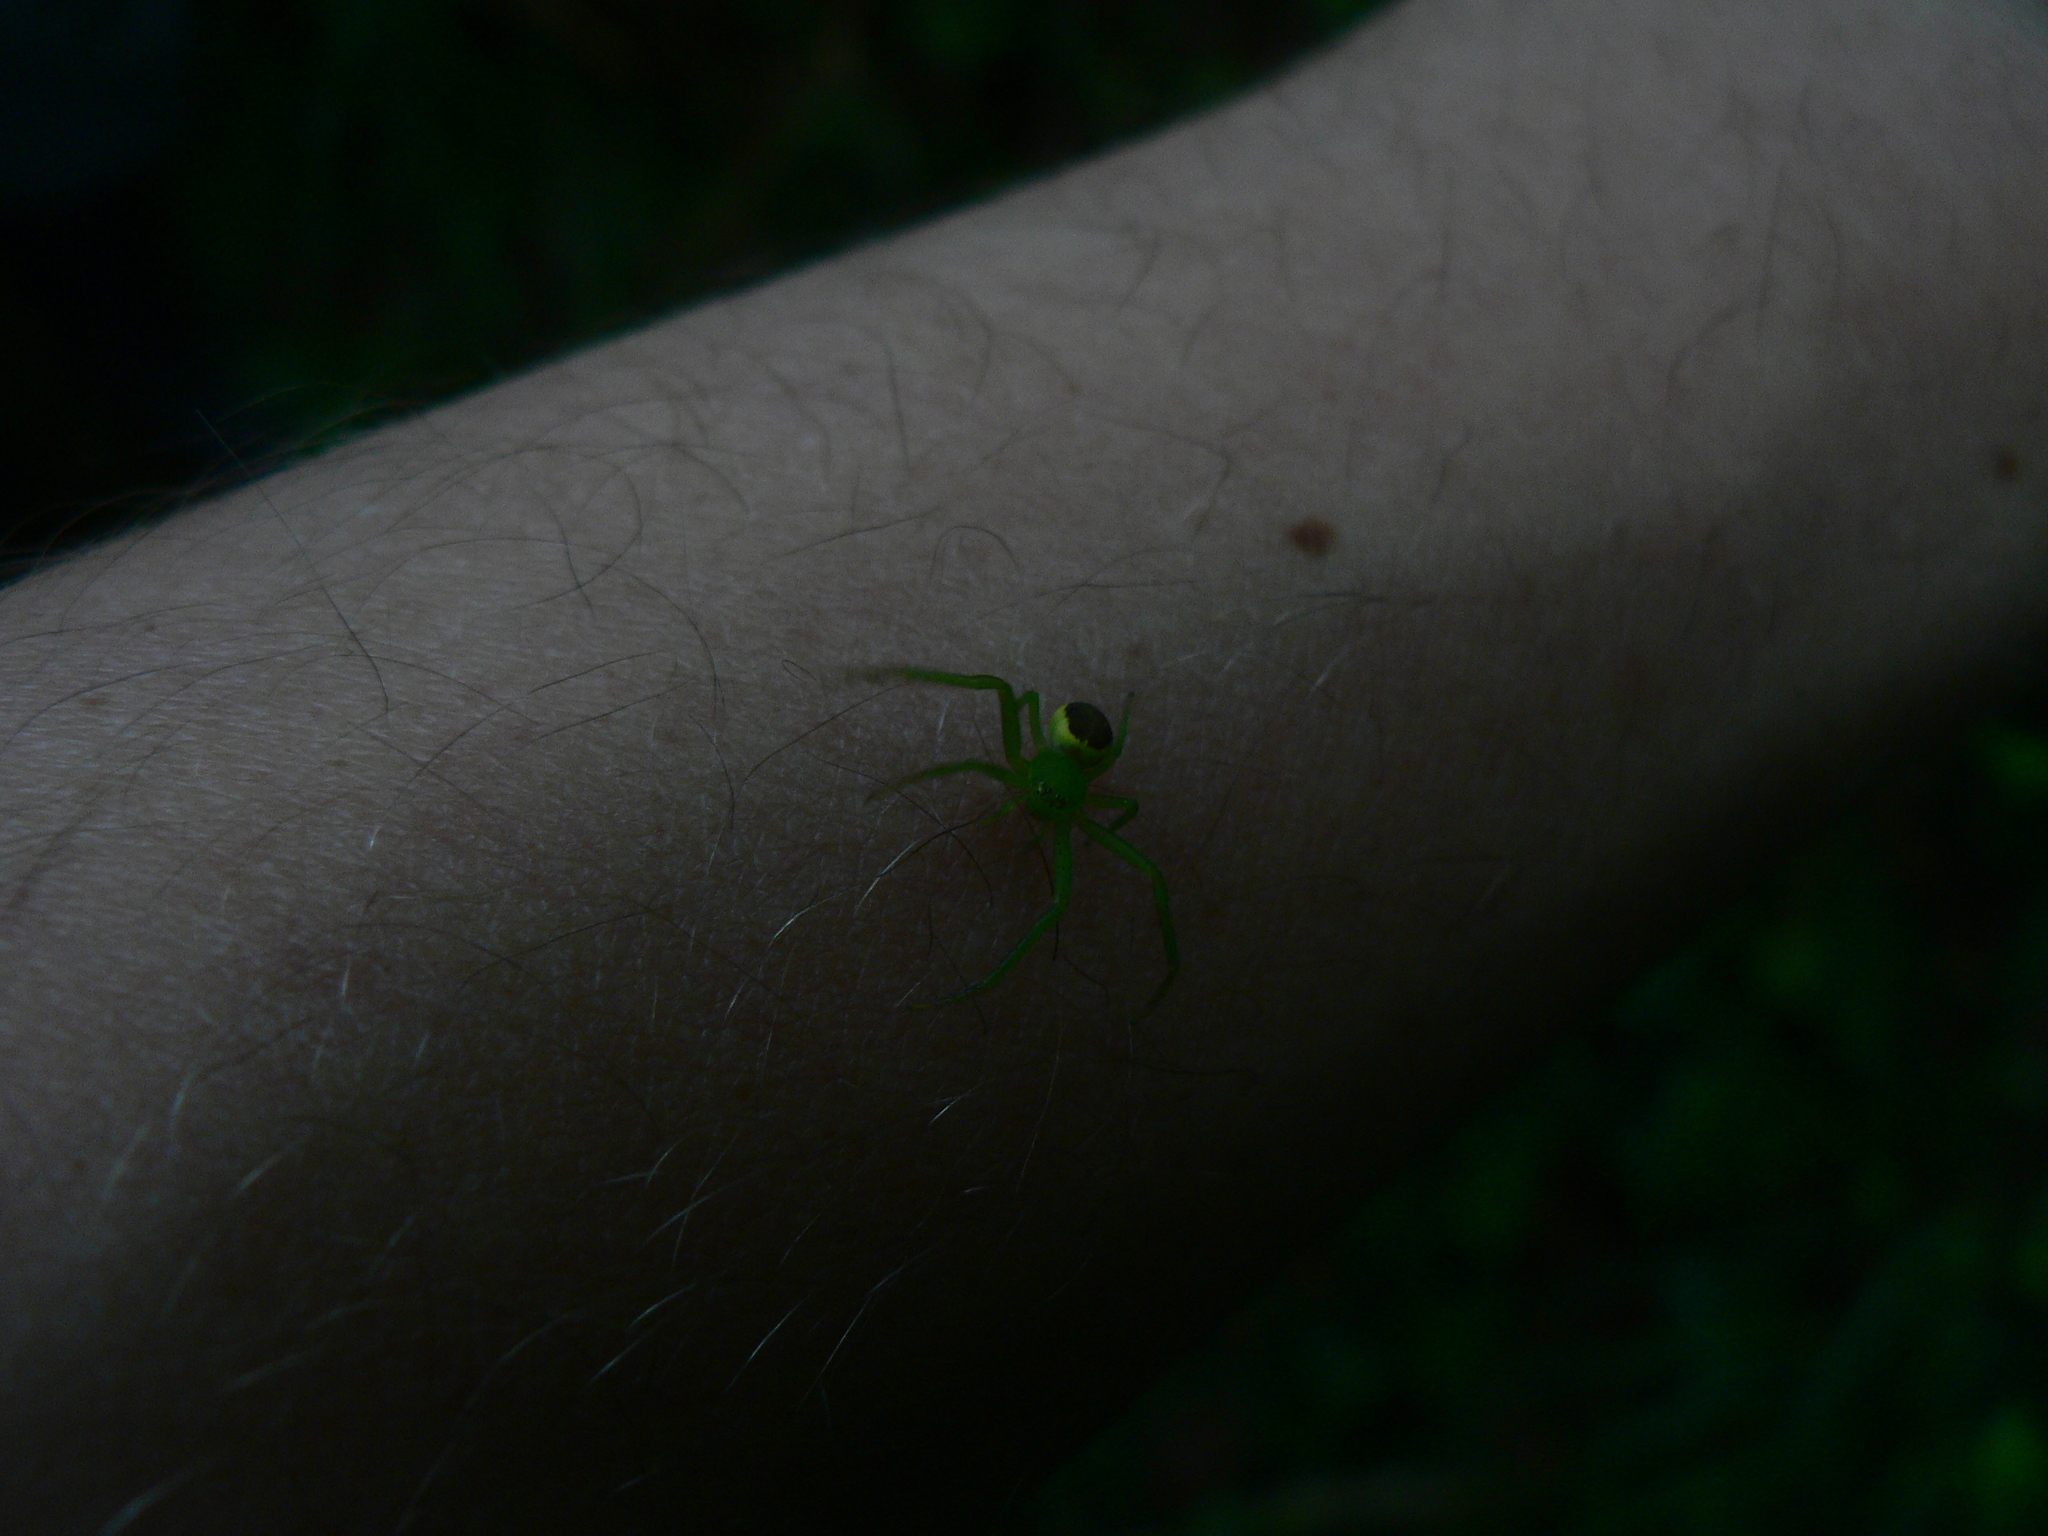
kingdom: Animalia
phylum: Arthropoda
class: Arachnida
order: Araneae
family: Thomisidae
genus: Diaea
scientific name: Diaea dorsata
